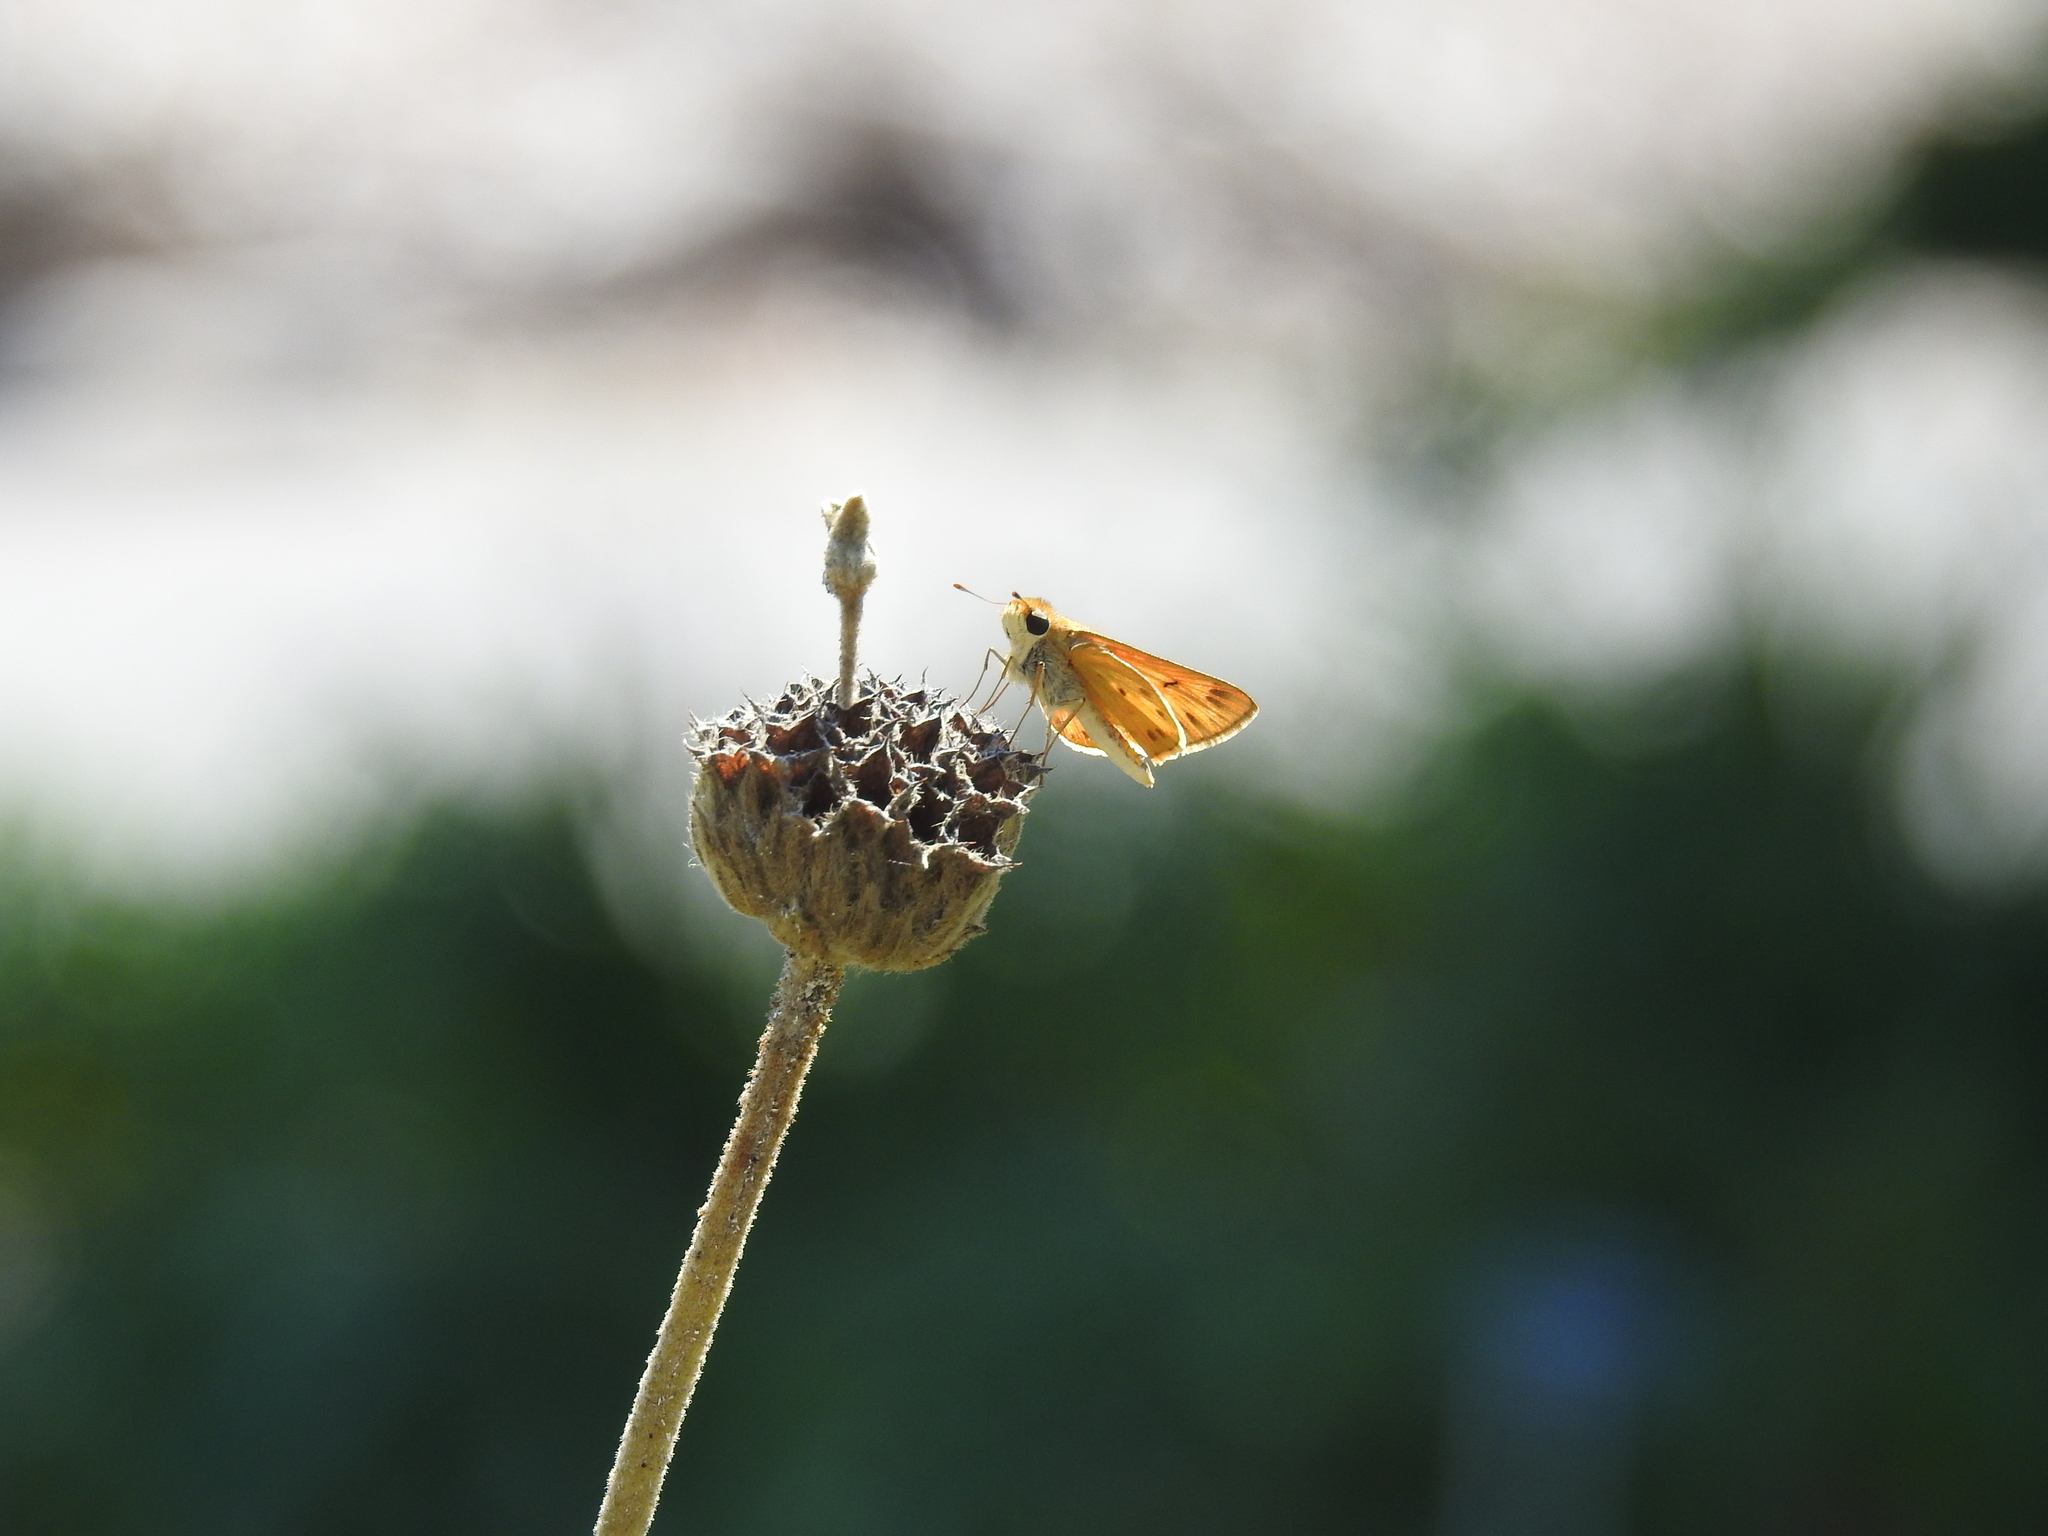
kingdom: Animalia
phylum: Arthropoda
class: Insecta
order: Lepidoptera
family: Hesperiidae
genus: Hylephila
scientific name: Hylephila phyleus
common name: Fiery skipper
